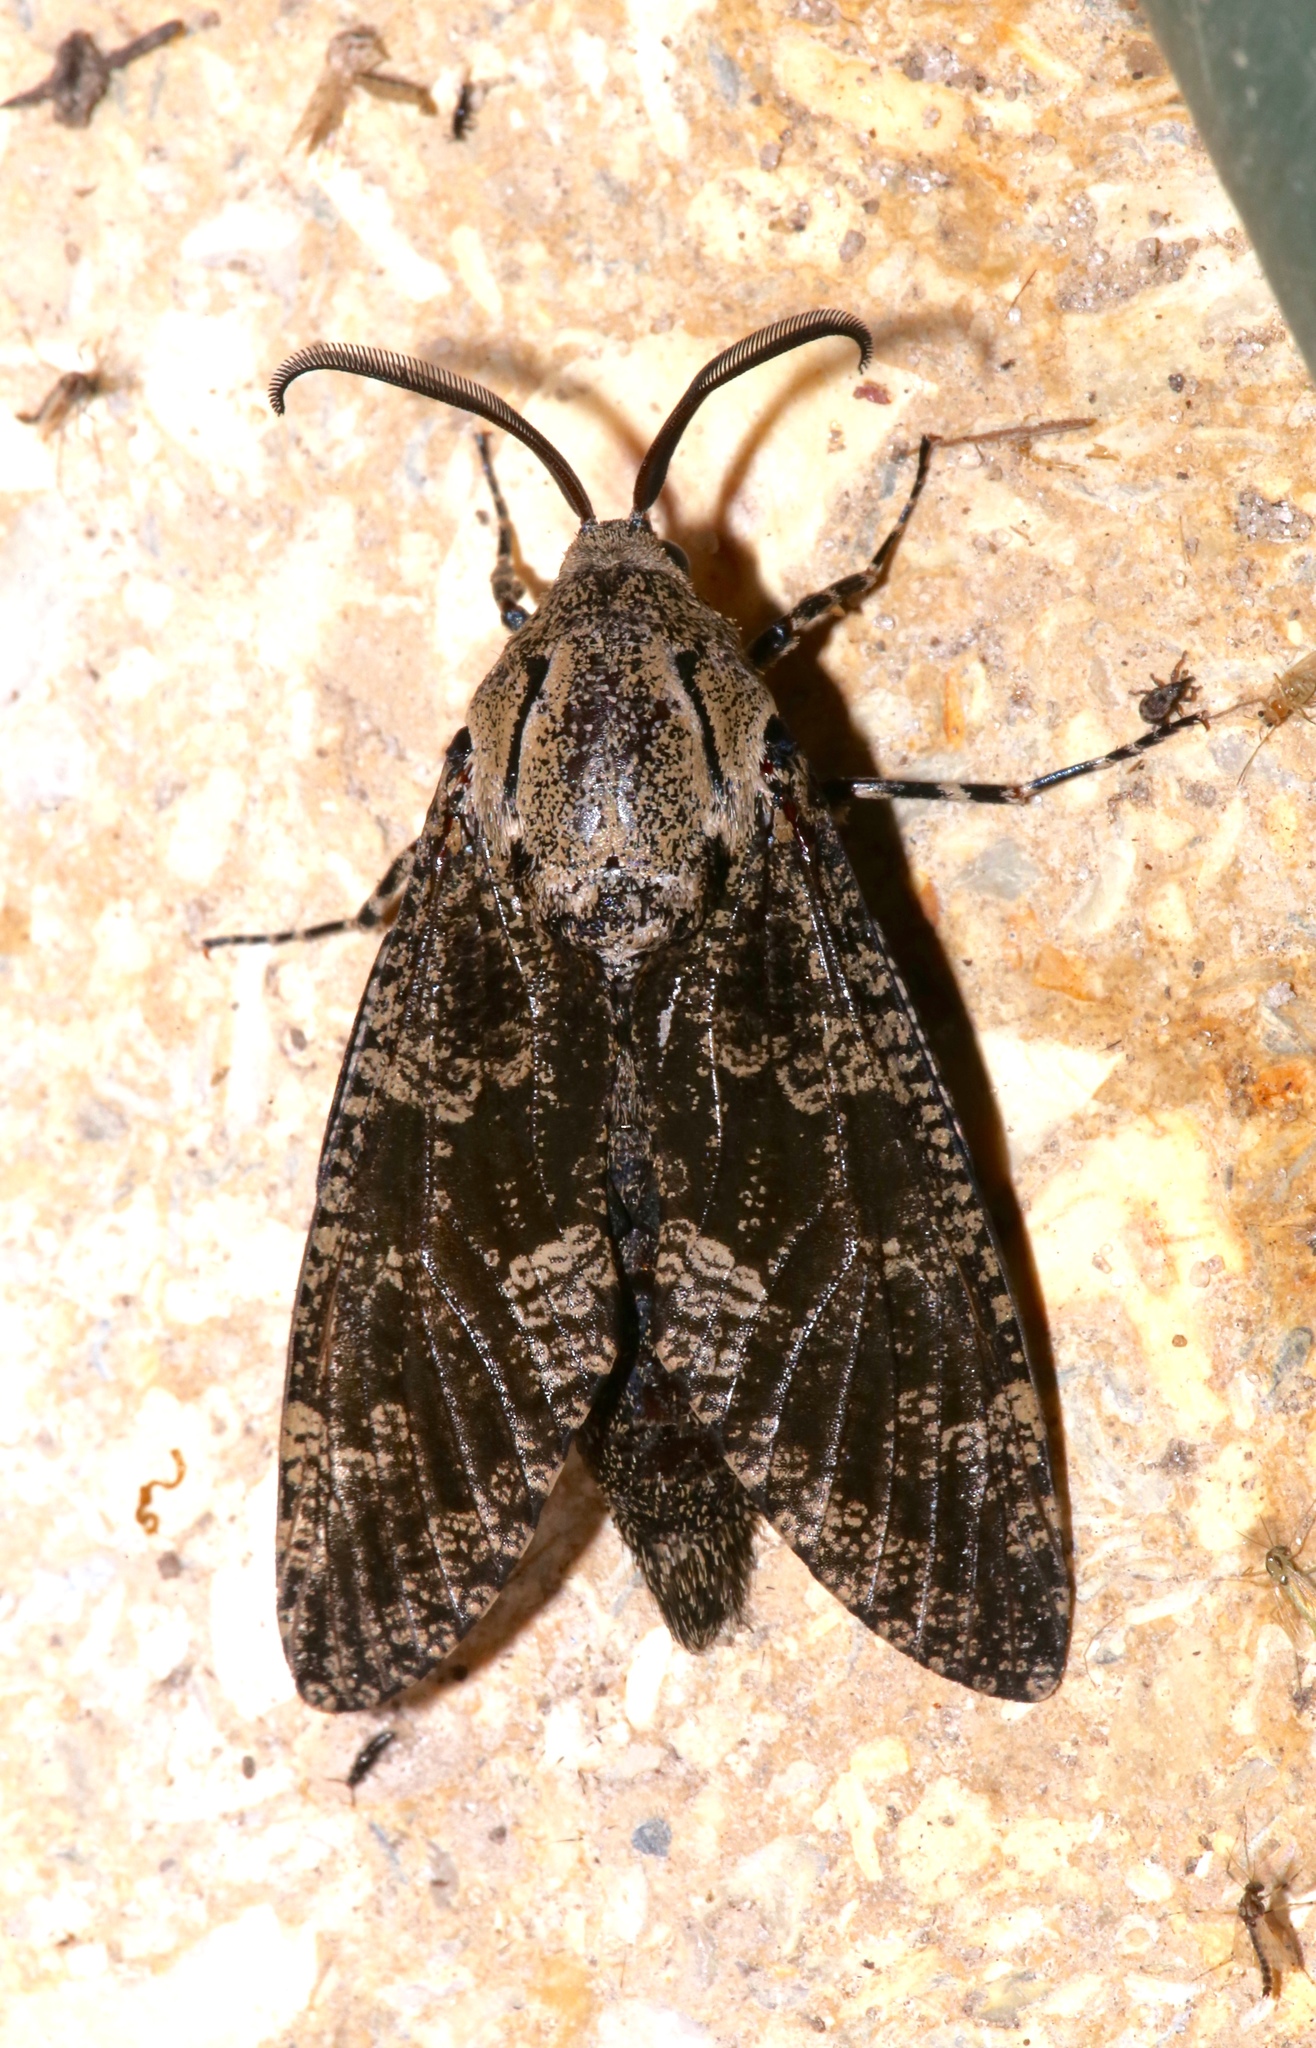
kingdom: Animalia
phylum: Arthropoda
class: Insecta
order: Lepidoptera
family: Cossidae
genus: Prionoxystus
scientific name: Prionoxystus robiniae
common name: Carpenterworm
